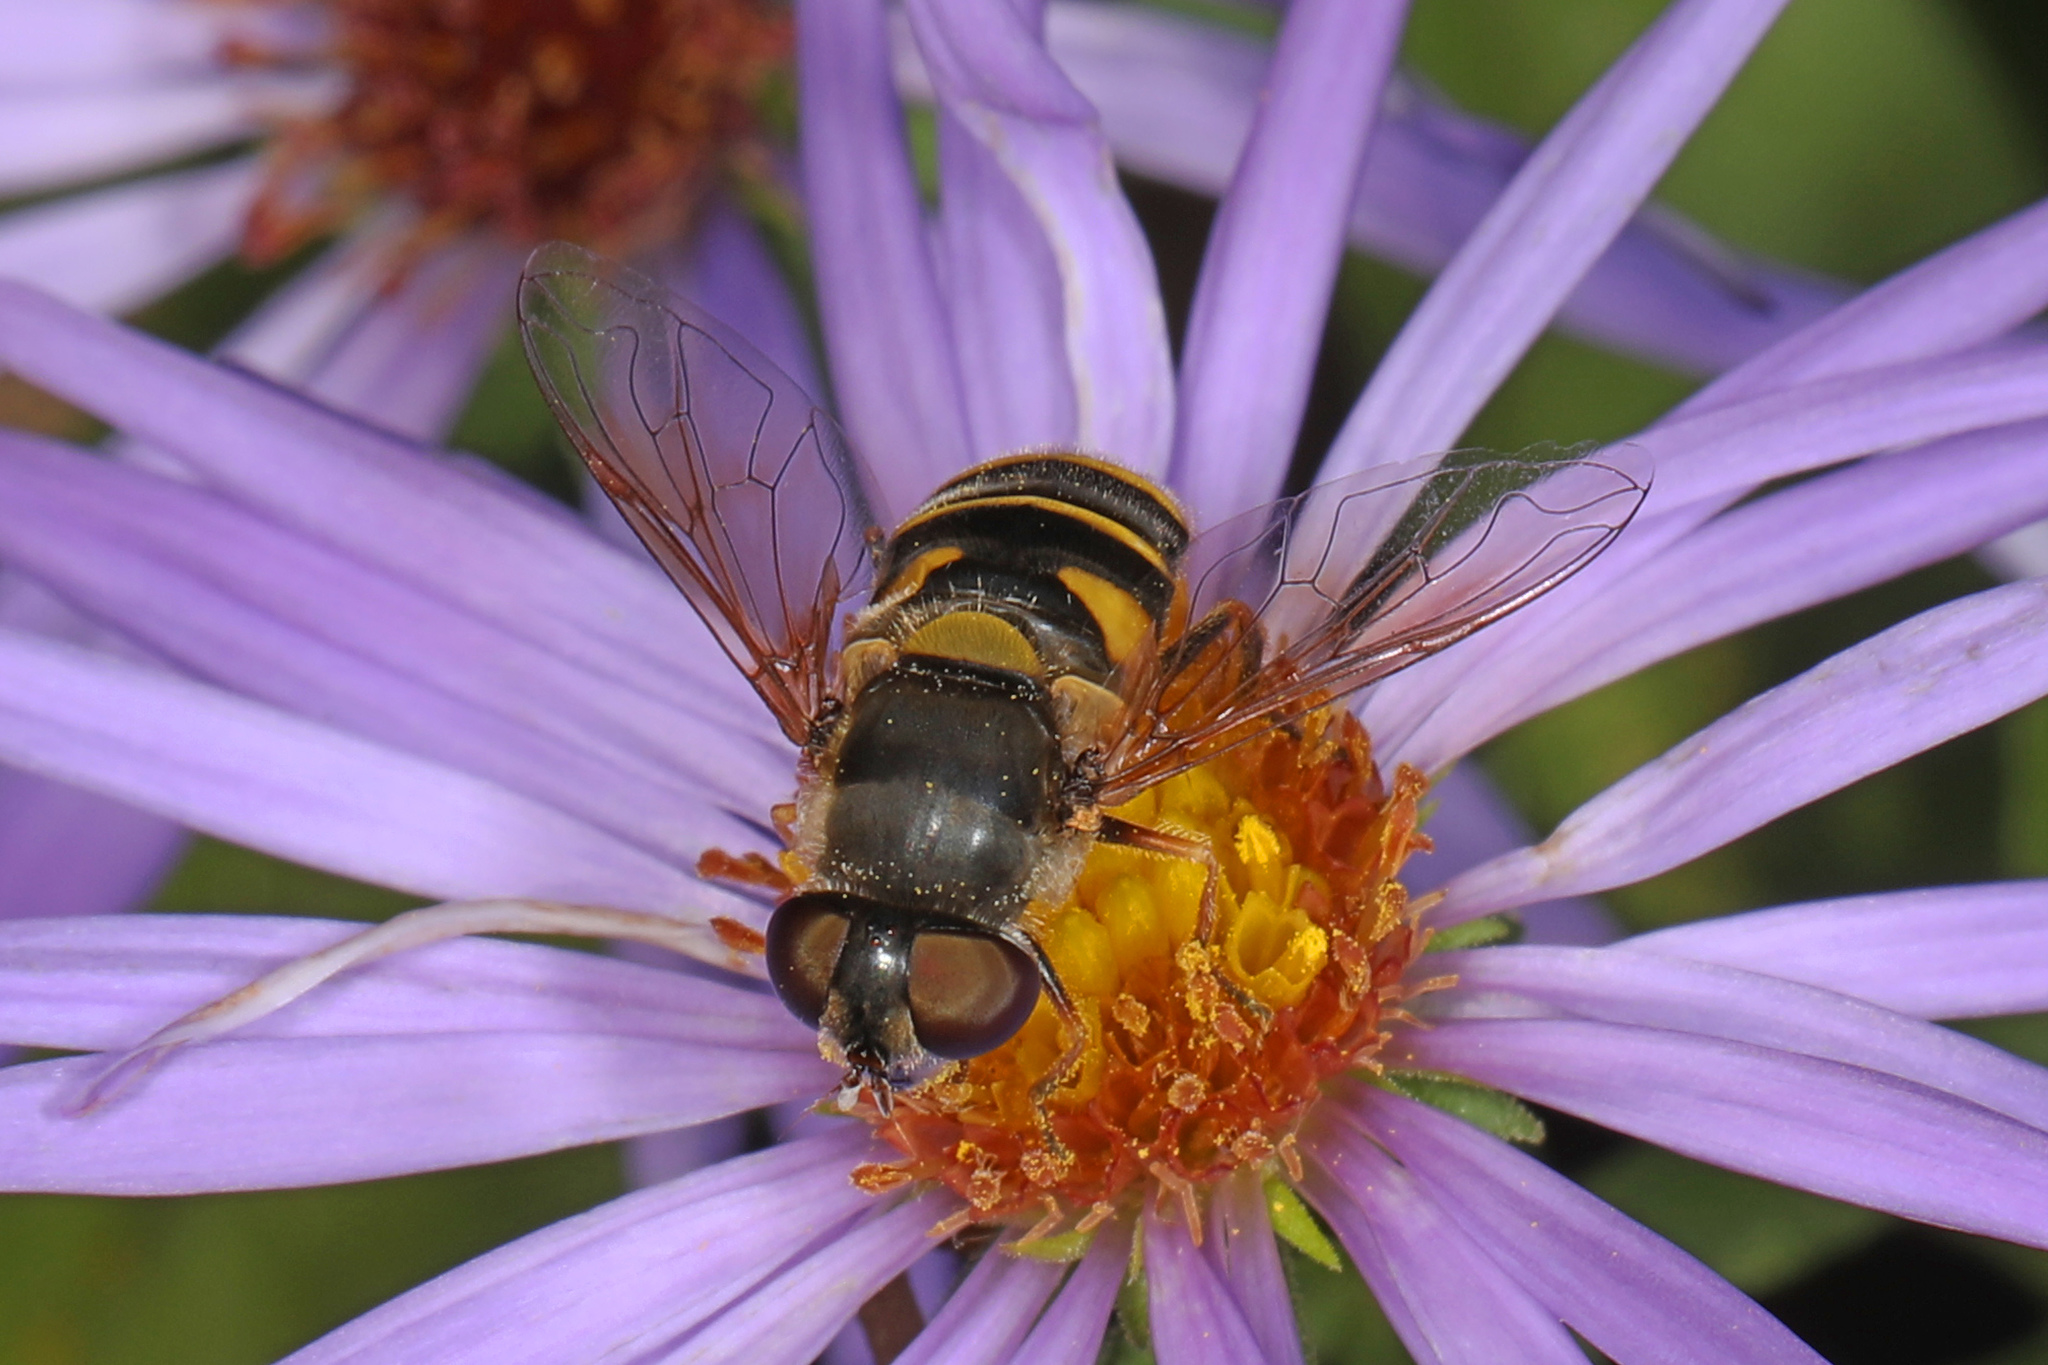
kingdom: Animalia
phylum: Arthropoda
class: Insecta
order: Diptera
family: Syrphidae
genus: Eristalis
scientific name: Eristalis transversa
